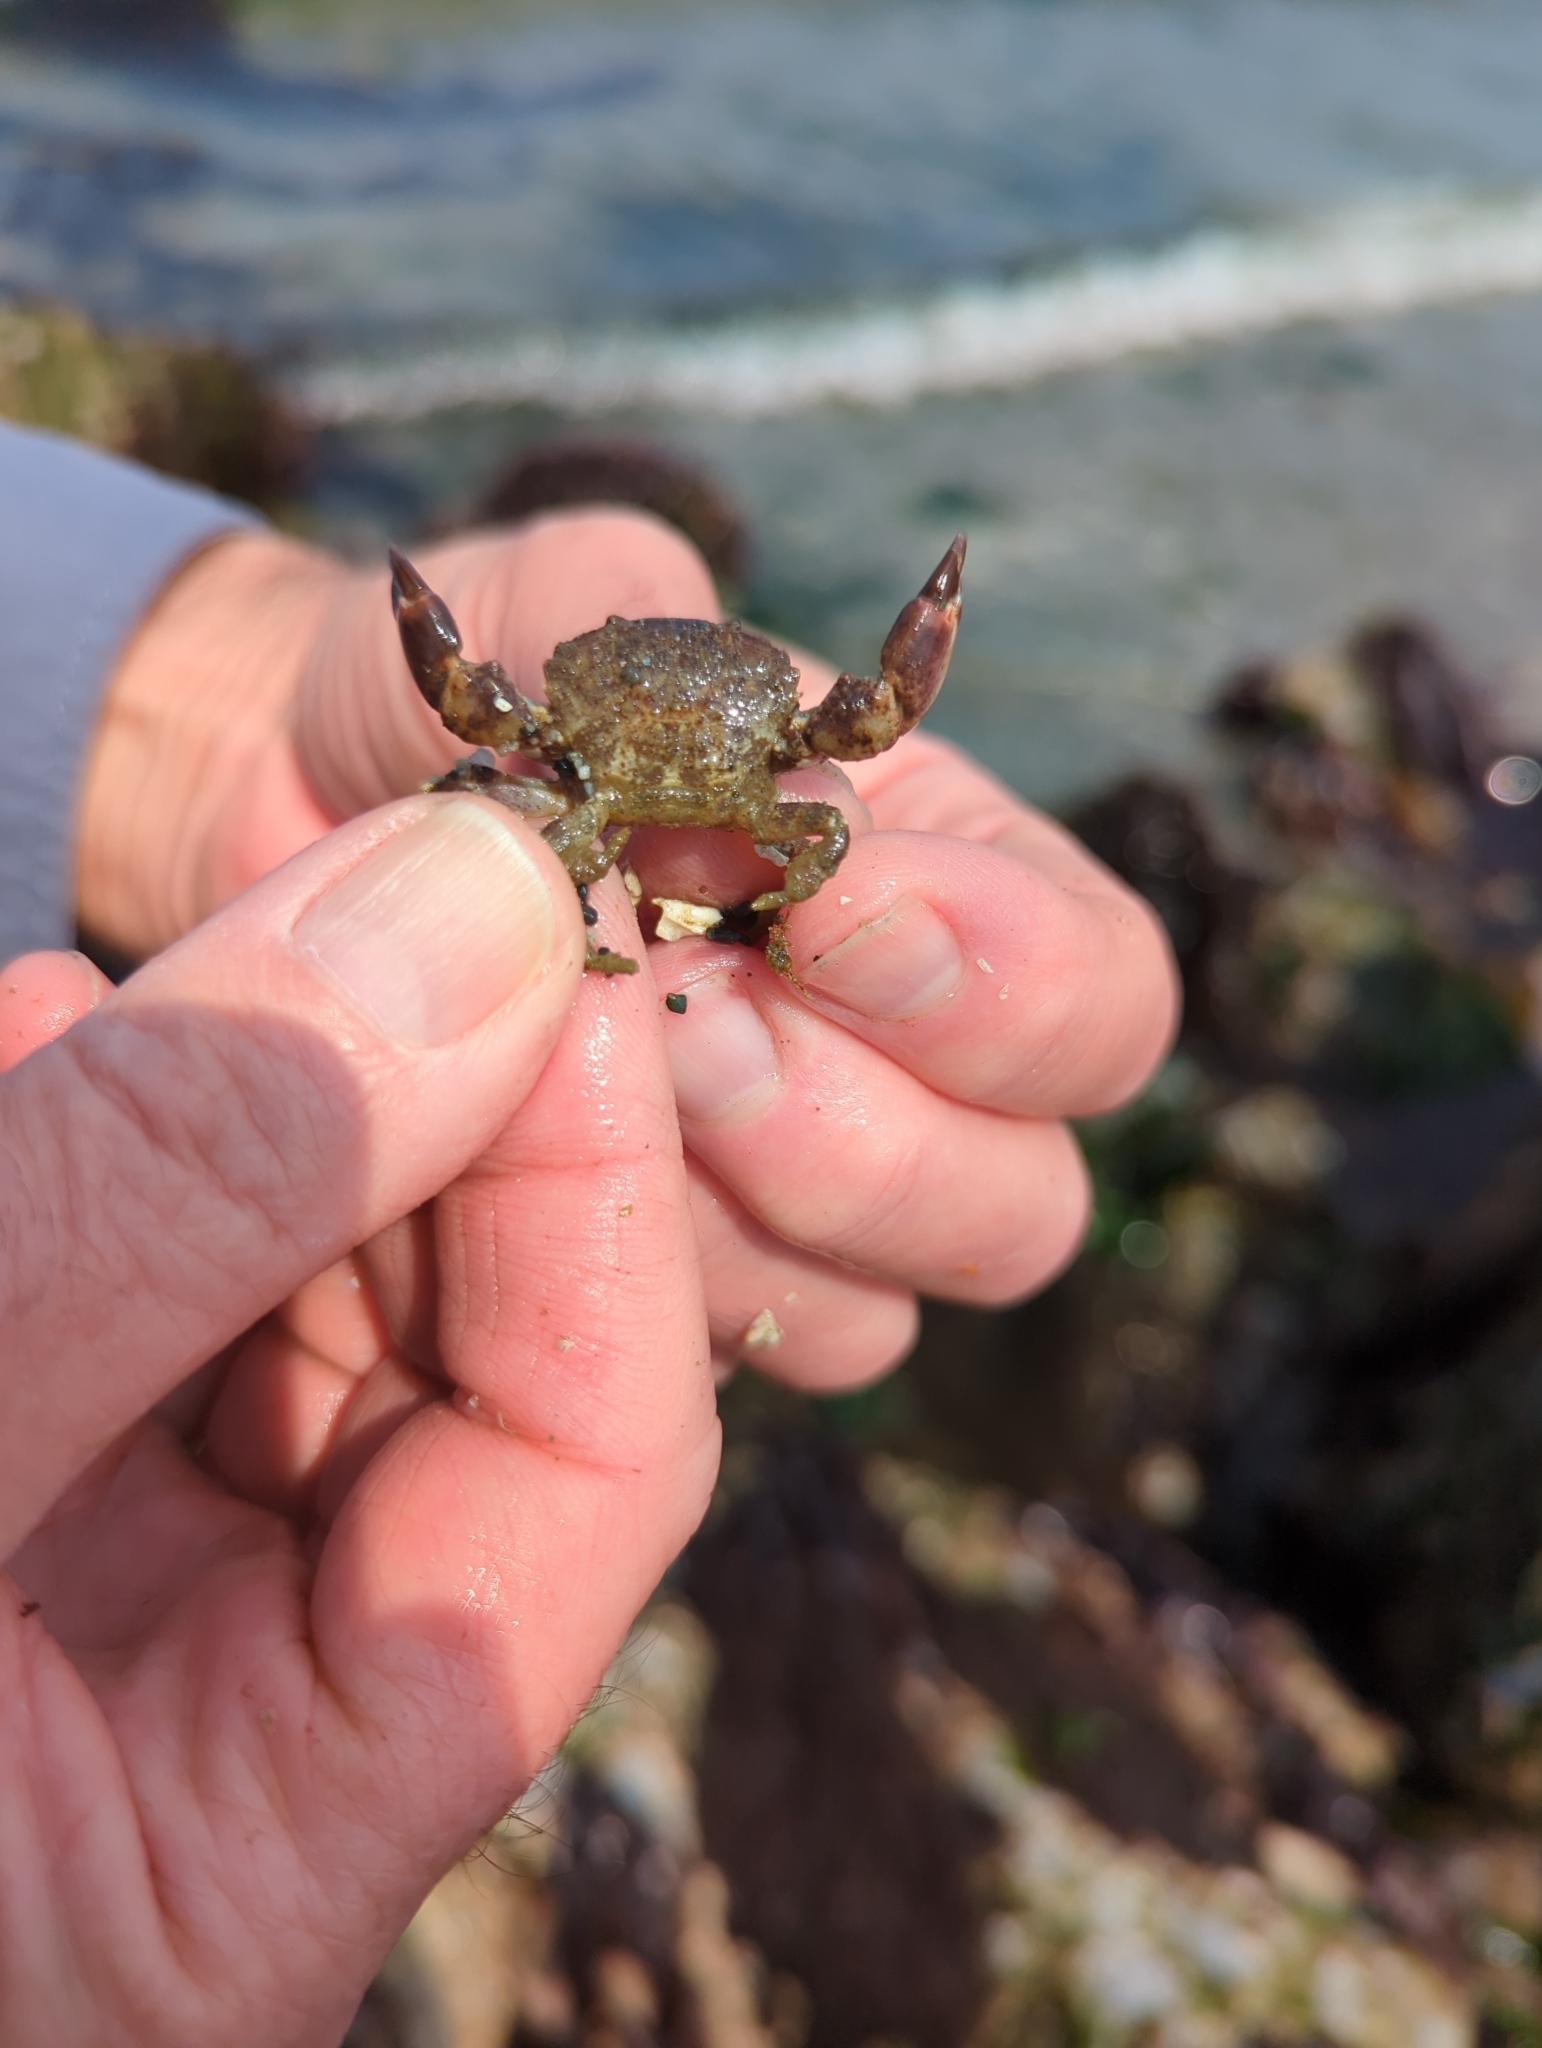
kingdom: Animalia
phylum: Arthropoda
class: Malacostraca
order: Decapoda
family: Panopeidae
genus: Lophopanopeus
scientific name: Lophopanopeus bellus
